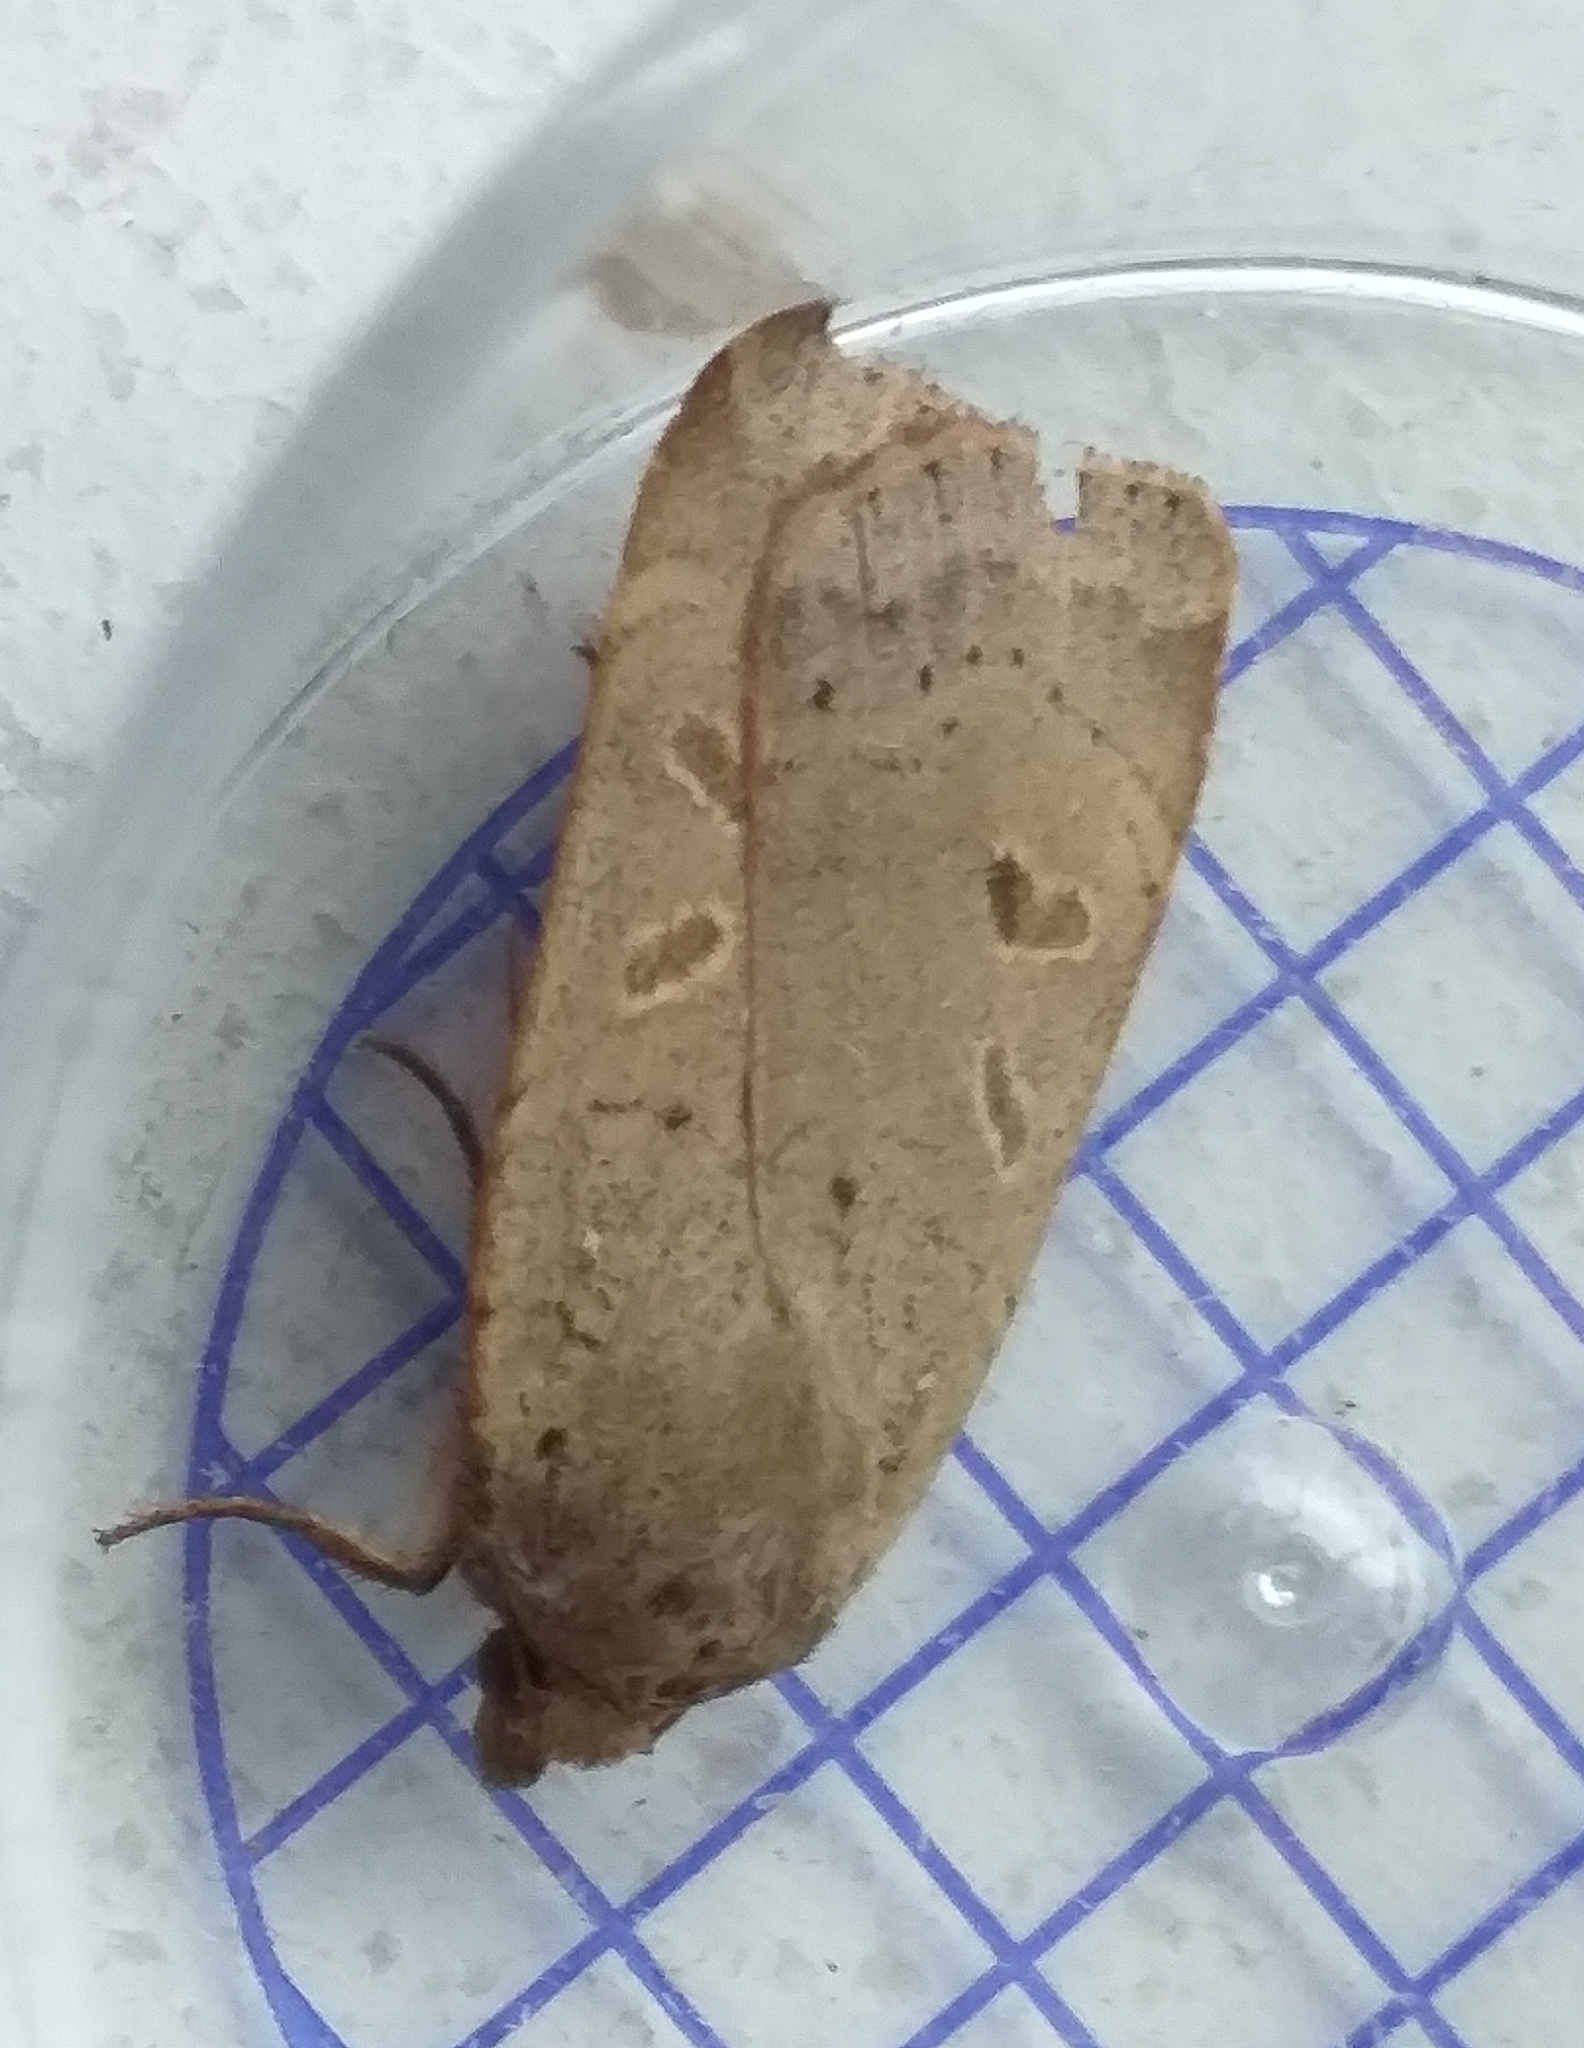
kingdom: Animalia
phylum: Arthropoda
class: Insecta
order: Lepidoptera
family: Noctuidae
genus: Noctua
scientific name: Noctua comes
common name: Lesser yellow underwing
